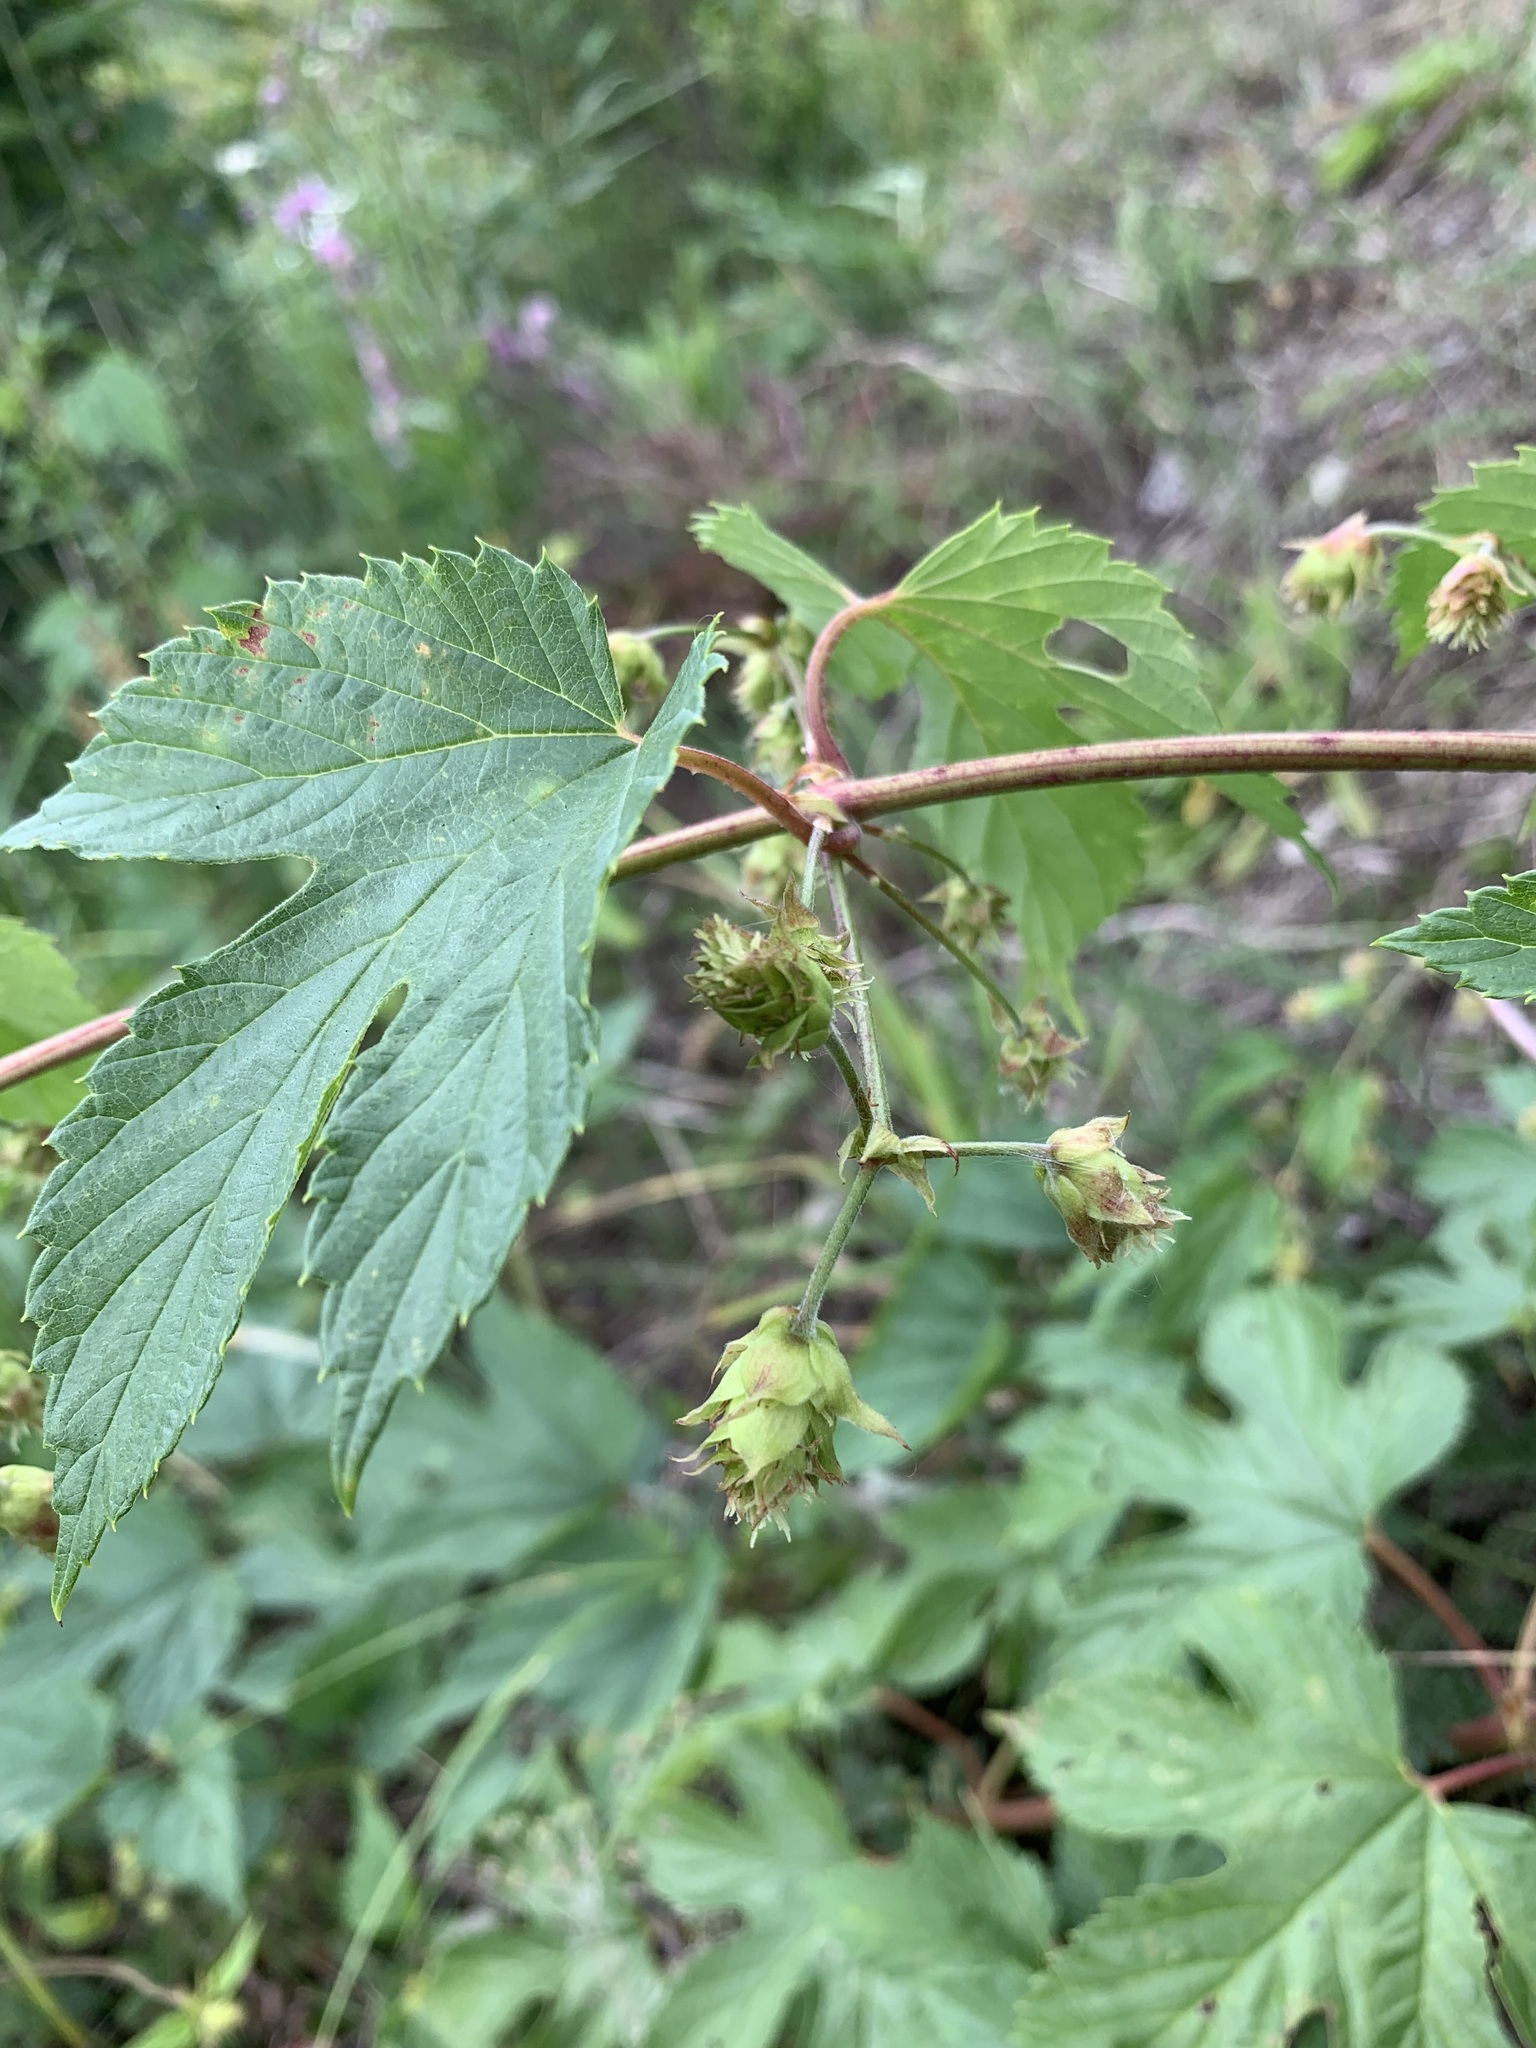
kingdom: Plantae
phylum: Tracheophyta
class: Magnoliopsida
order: Rosales
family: Cannabaceae
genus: Humulus
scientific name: Humulus lupulus
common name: Hop
